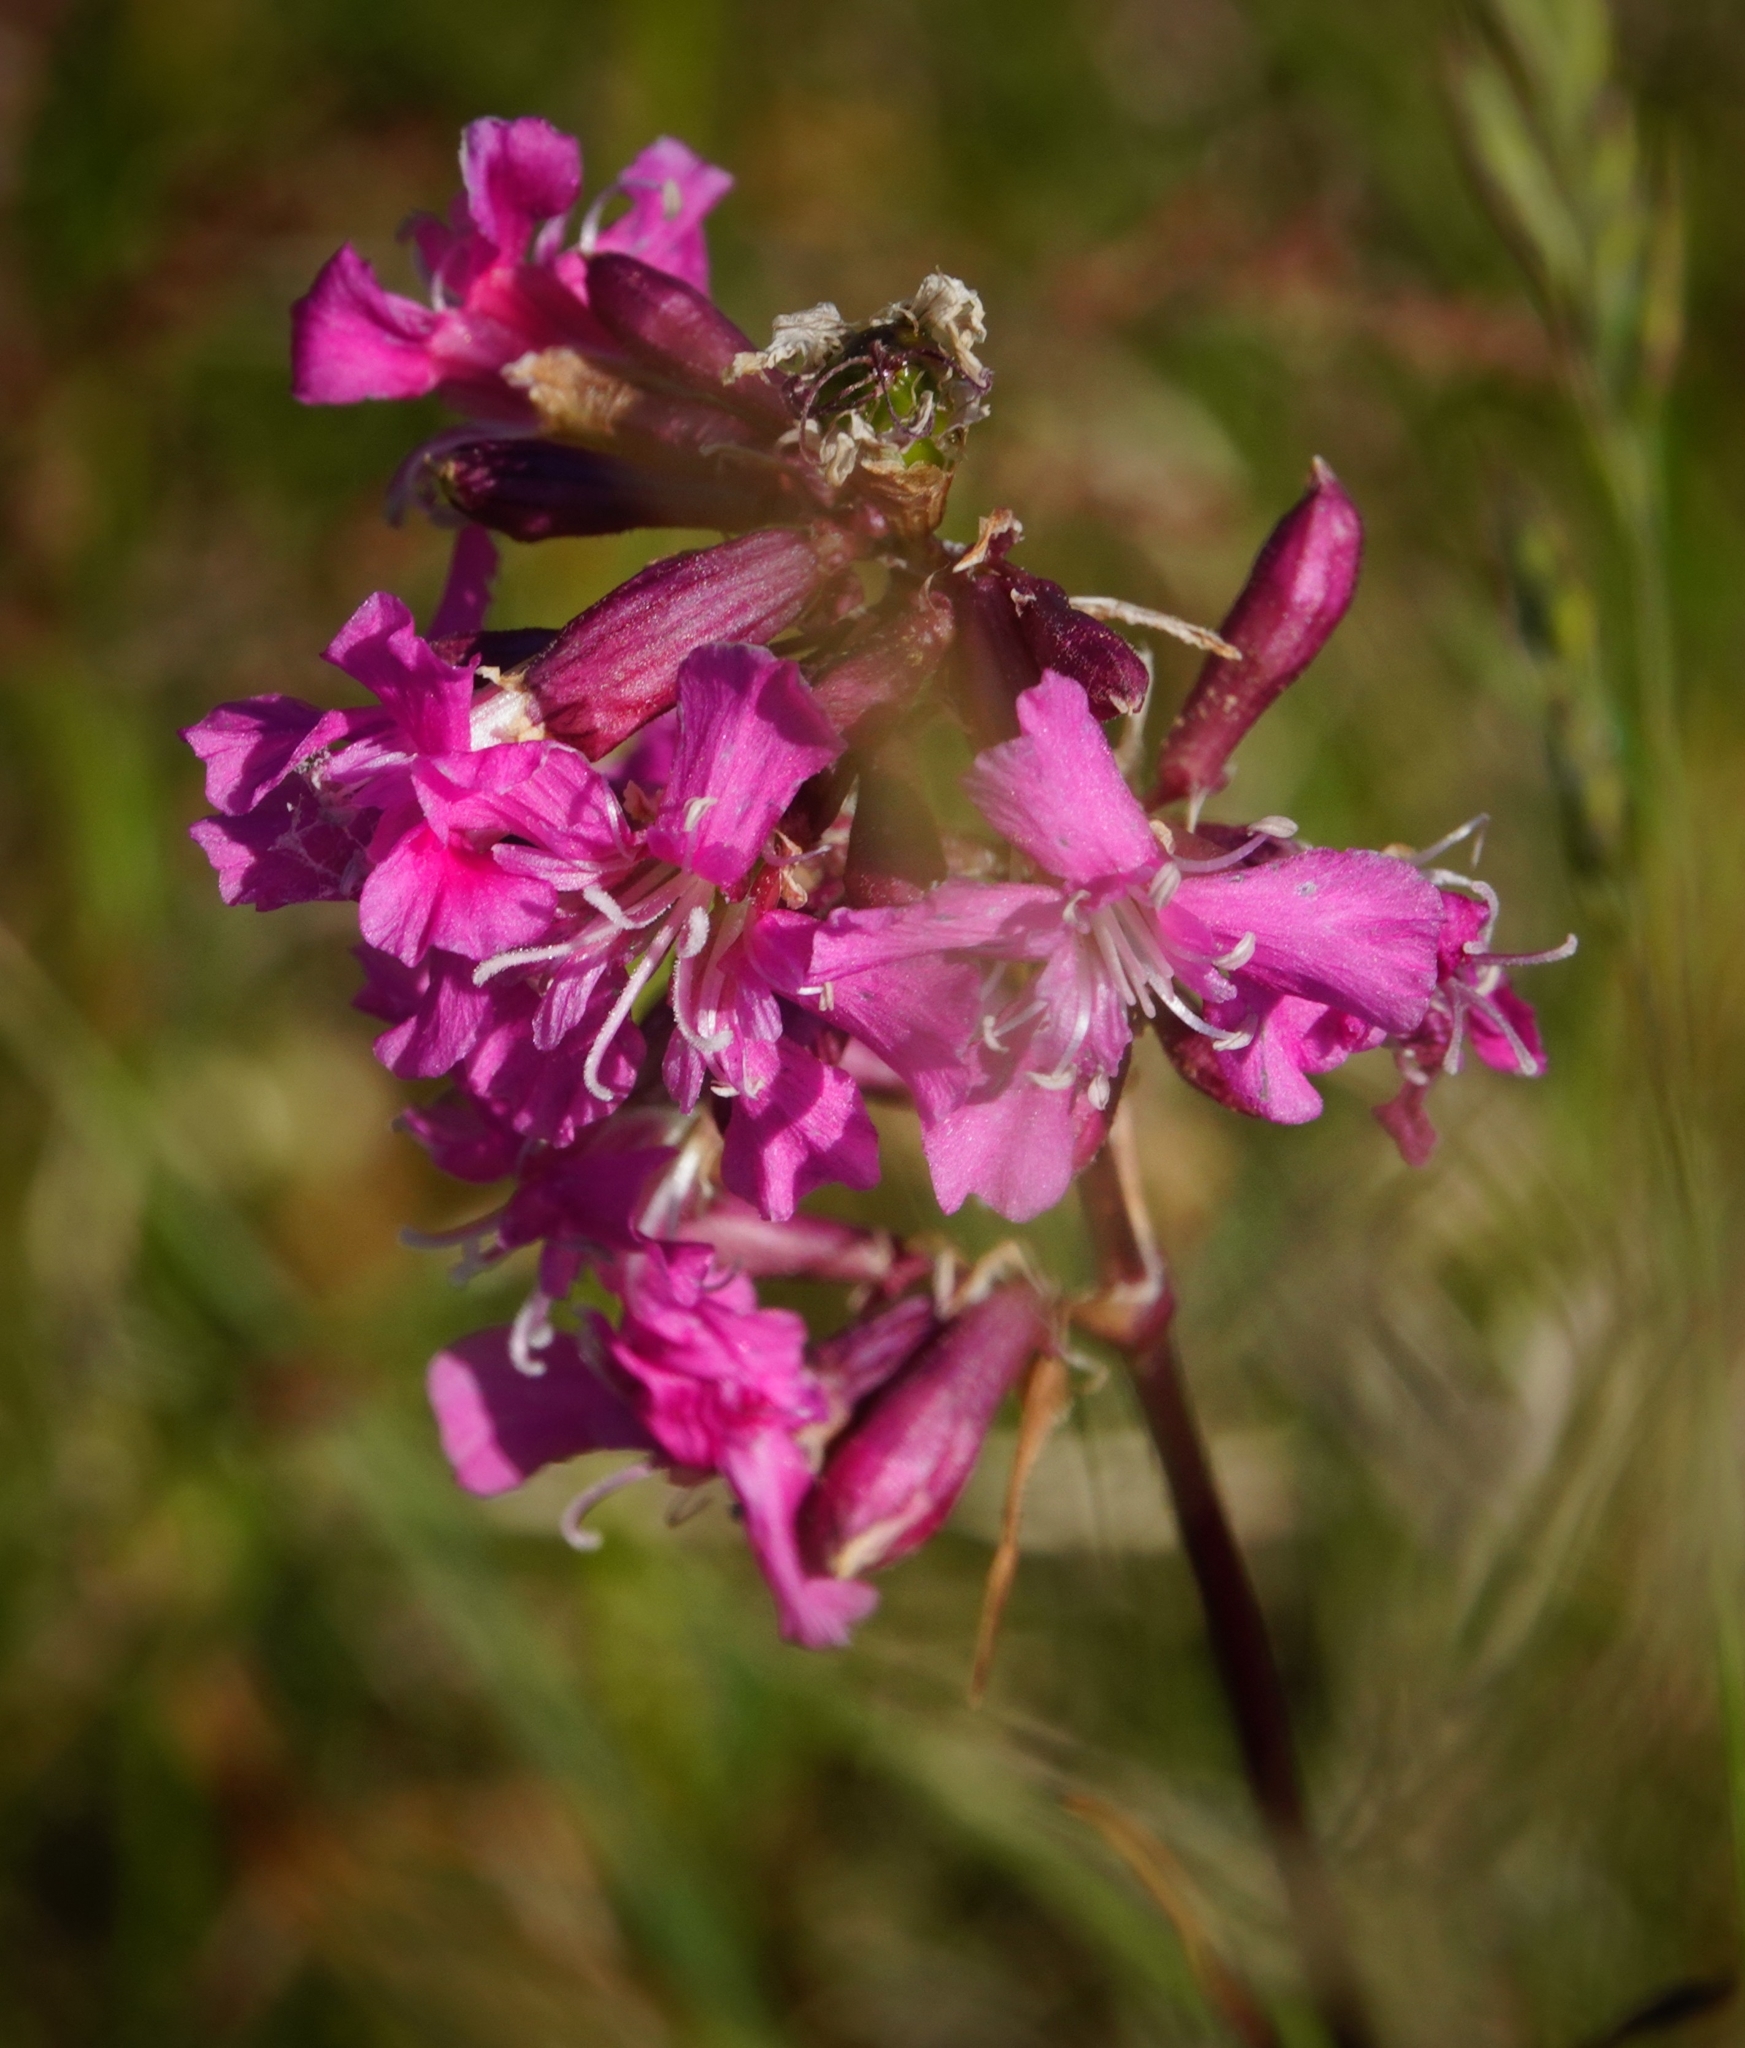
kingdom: Plantae
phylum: Tracheophyta
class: Magnoliopsida
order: Caryophyllales
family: Caryophyllaceae
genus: Viscaria
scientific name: Viscaria vulgaris
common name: Clammy campion
